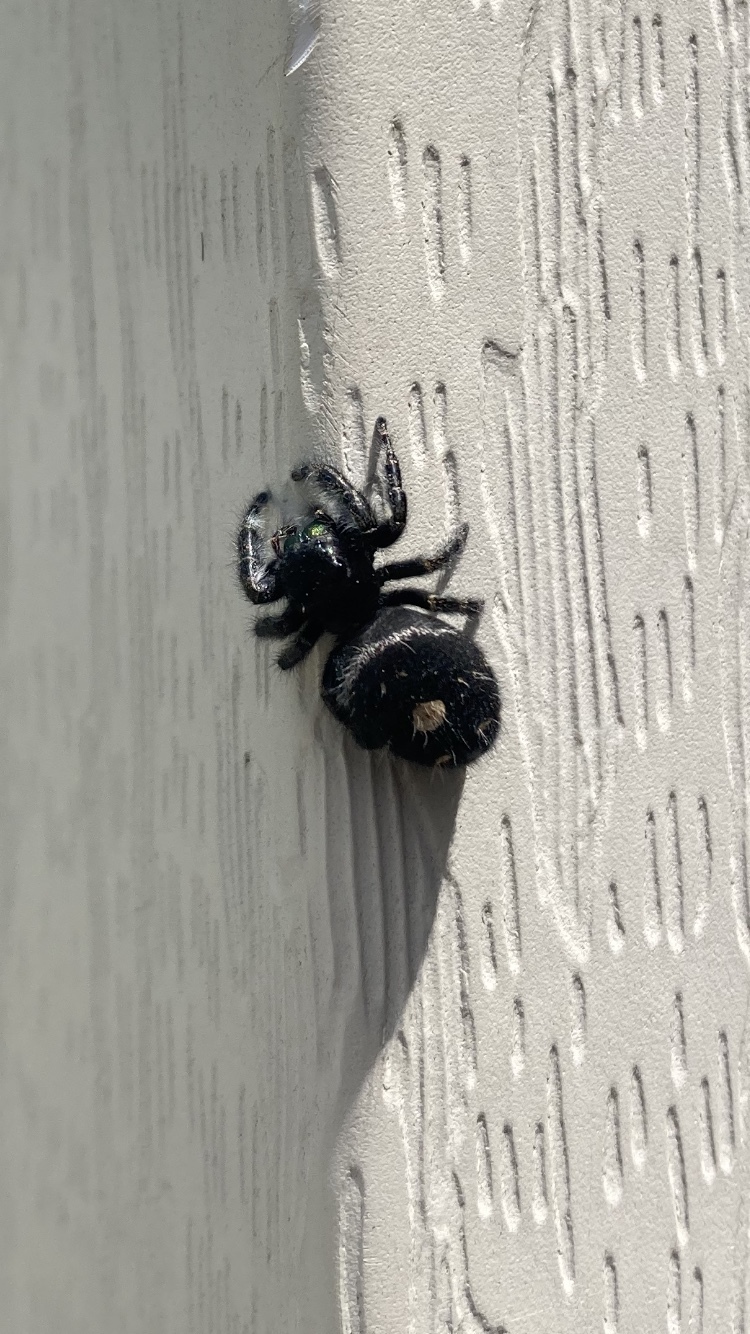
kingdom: Animalia
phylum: Arthropoda
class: Arachnida
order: Araneae
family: Salticidae
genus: Phidippus
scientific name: Phidippus audax
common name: Bold jumper
